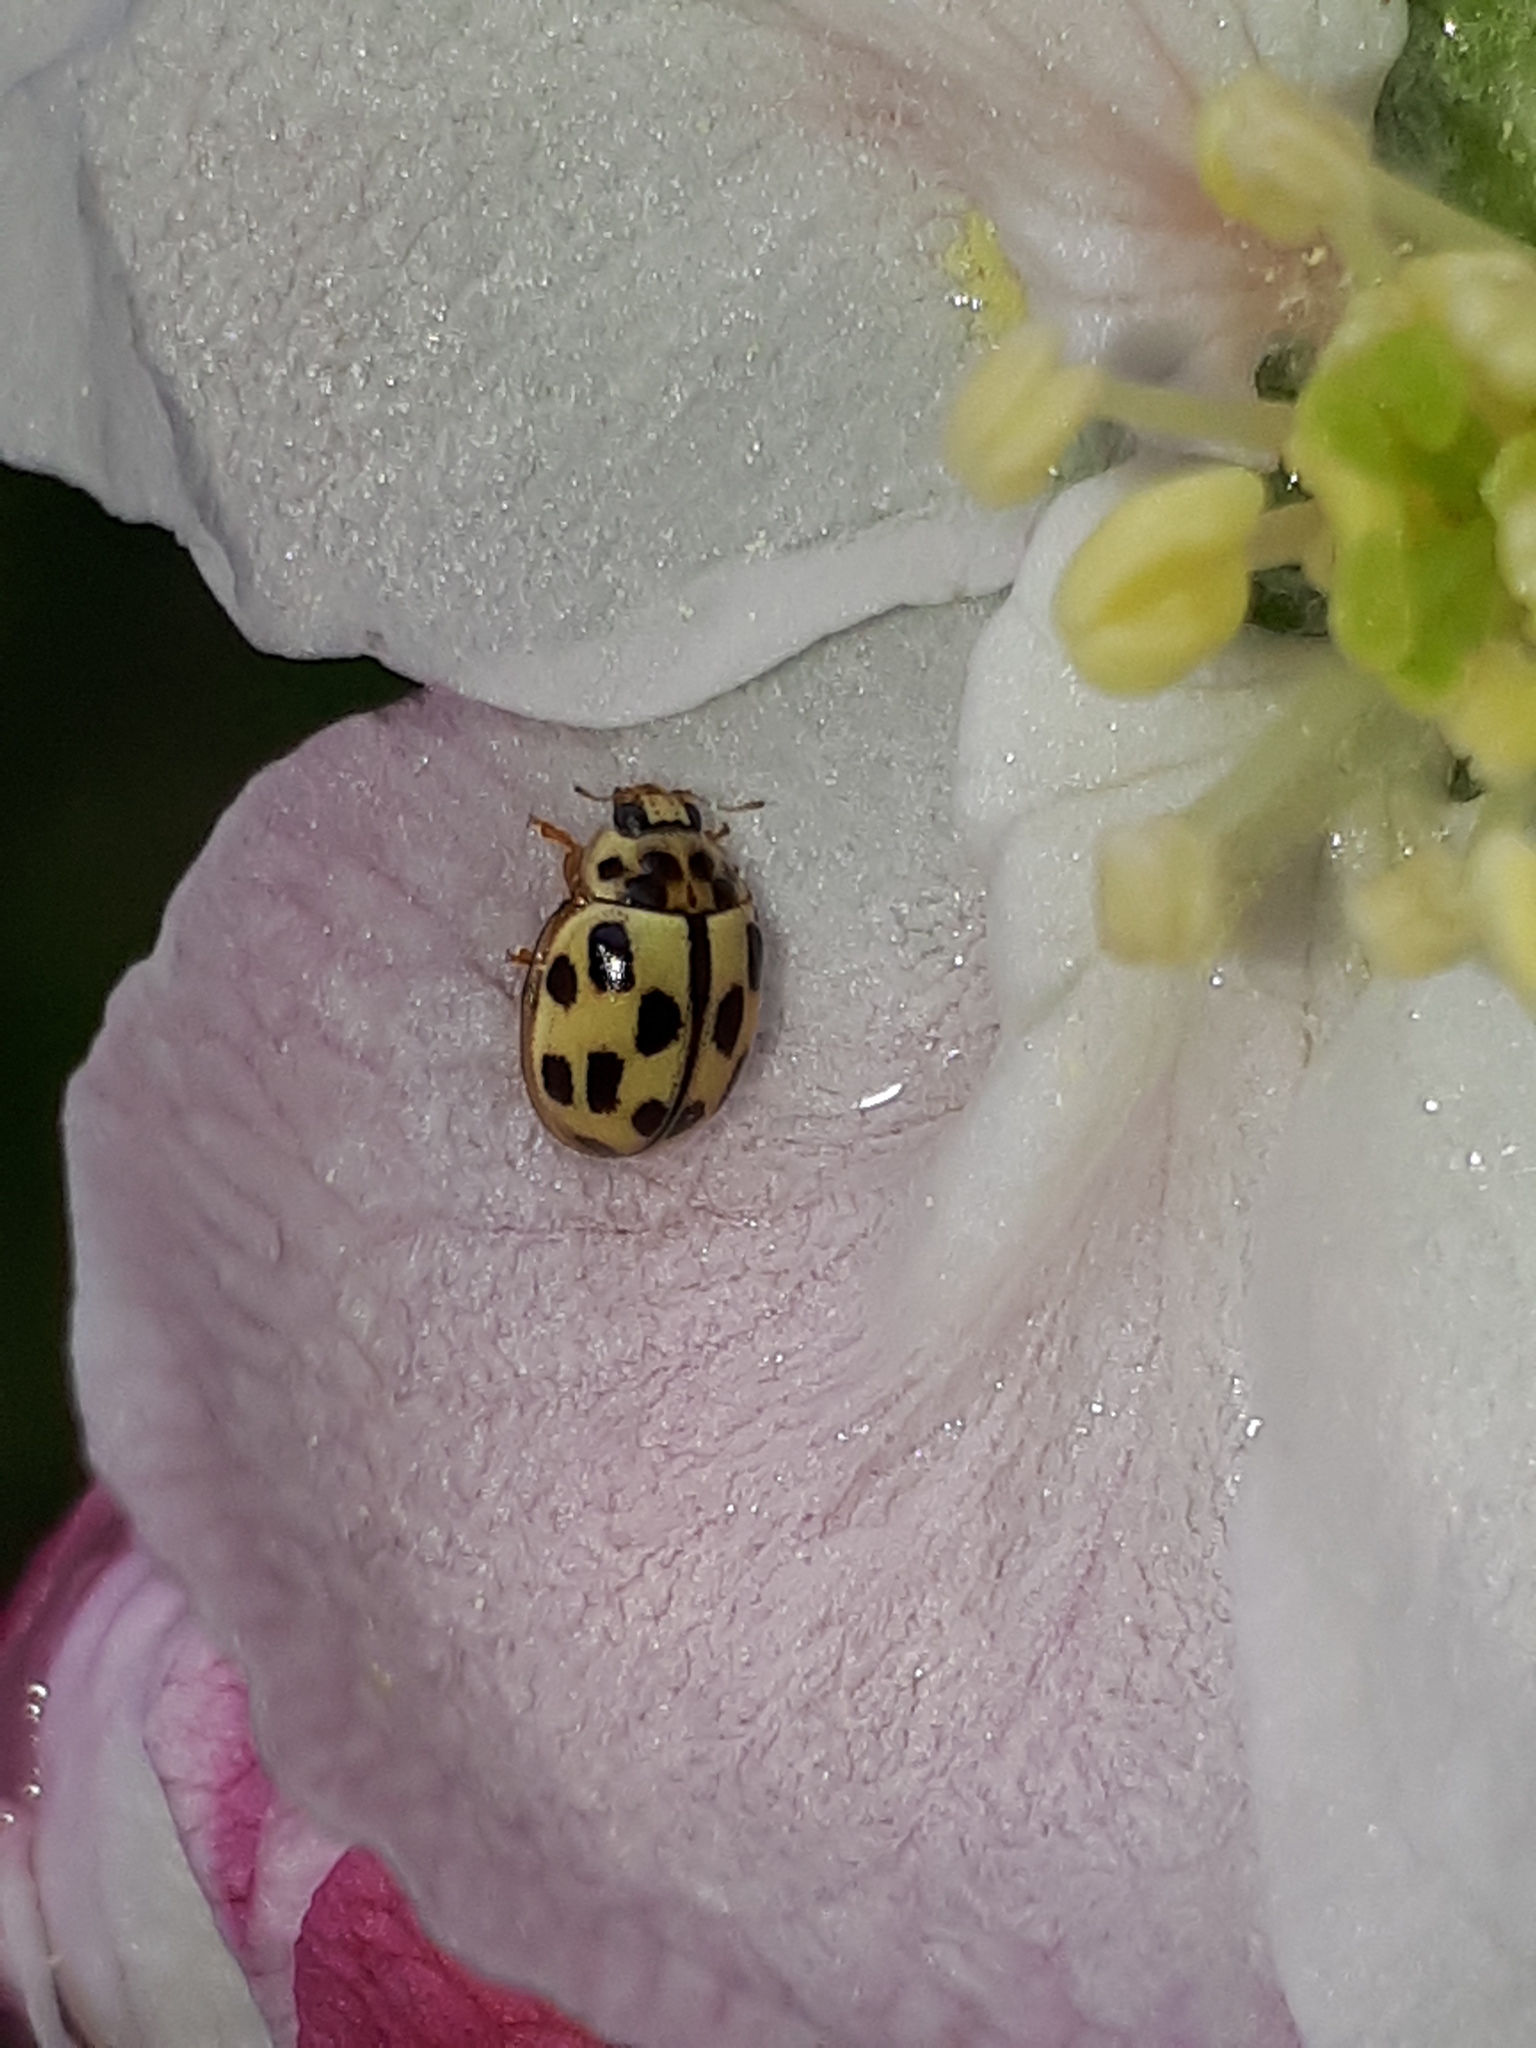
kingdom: Animalia
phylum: Arthropoda
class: Insecta
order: Coleoptera
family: Coccinellidae
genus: Propylaea
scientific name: Propylaea quatuordecimpunctata
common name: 14-spotted ladybird beetle
